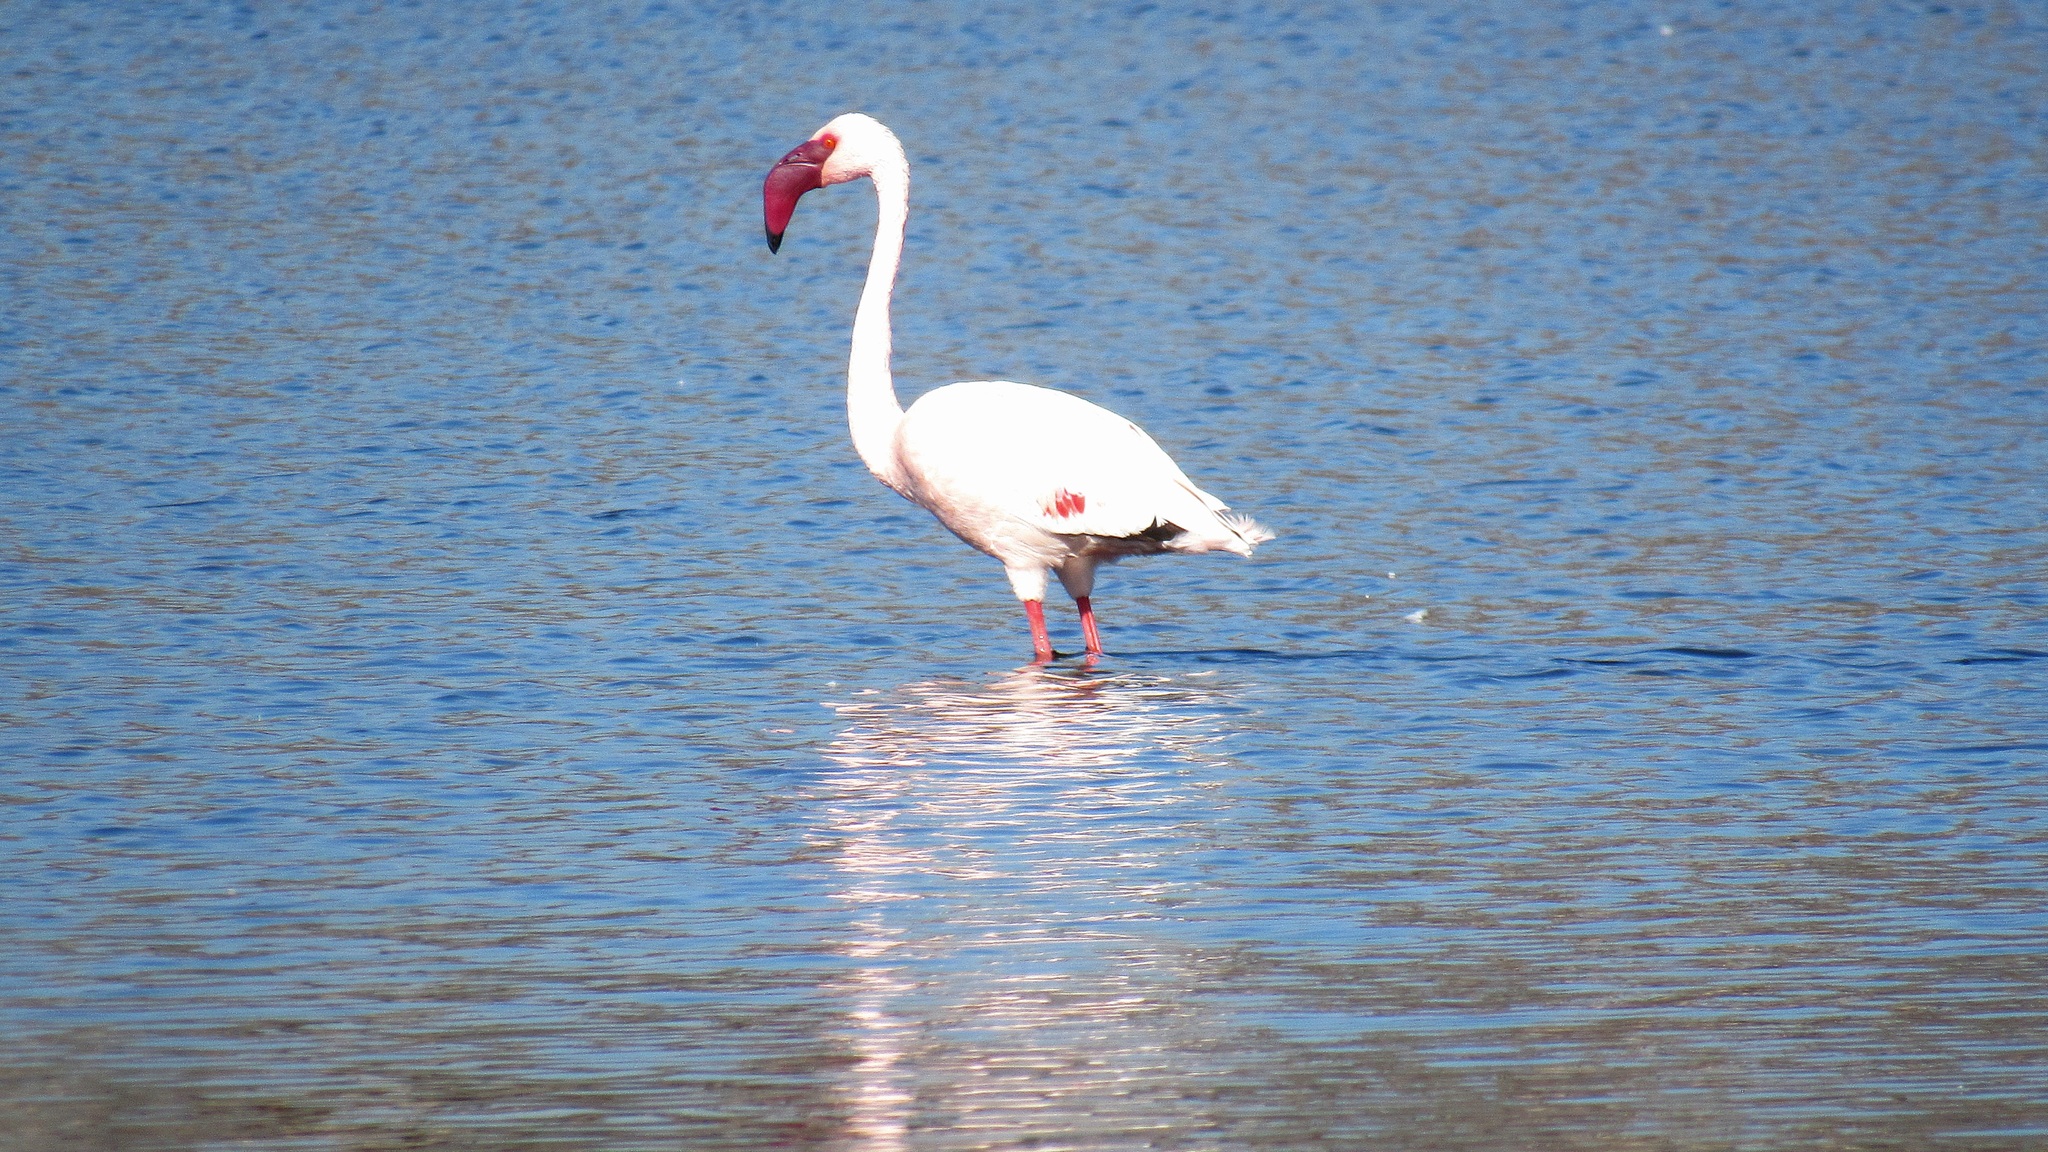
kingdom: Animalia
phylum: Chordata
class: Aves
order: Phoenicopteriformes
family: Phoenicopteridae
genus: Phoeniconaias
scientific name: Phoeniconaias minor
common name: Lesser flamingo
